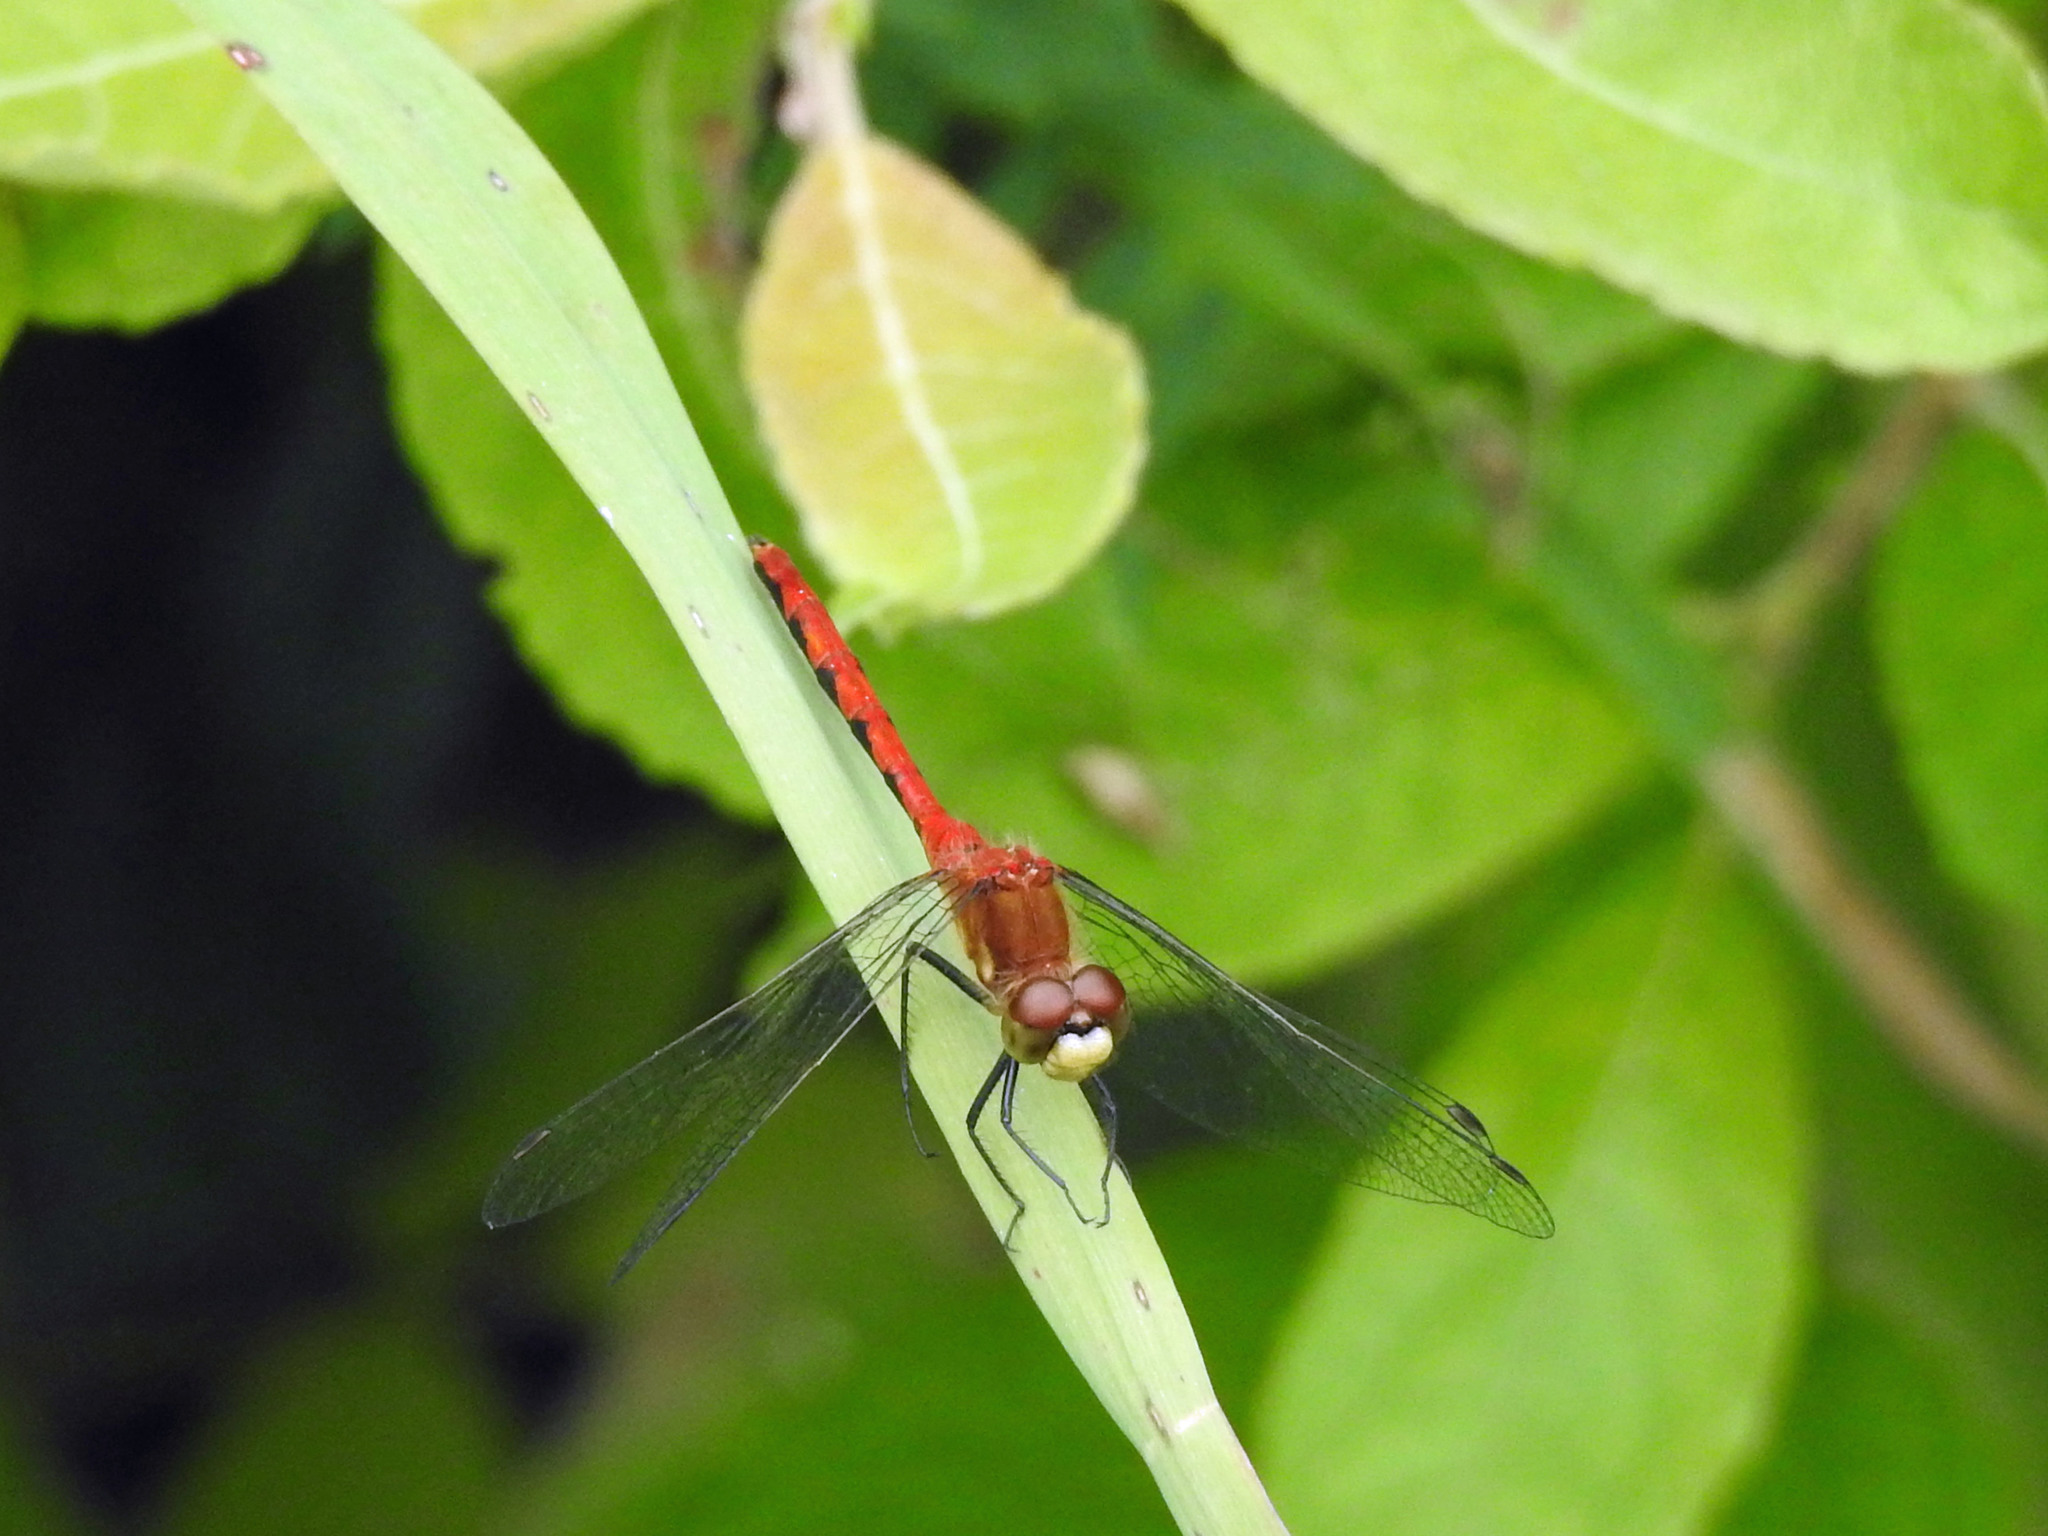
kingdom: Animalia
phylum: Arthropoda
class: Insecta
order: Odonata
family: Libellulidae
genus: Sympetrum
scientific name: Sympetrum obtrusum
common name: White-faced meadowhawk
